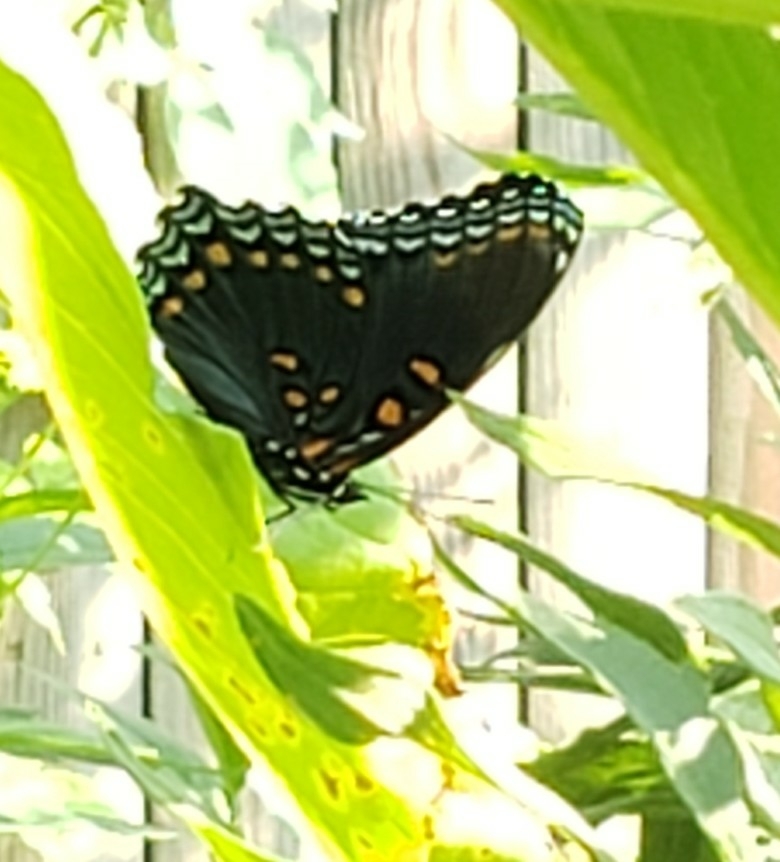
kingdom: Animalia
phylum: Arthropoda
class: Insecta
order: Lepidoptera
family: Nymphalidae
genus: Limenitis
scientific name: Limenitis astyanax
